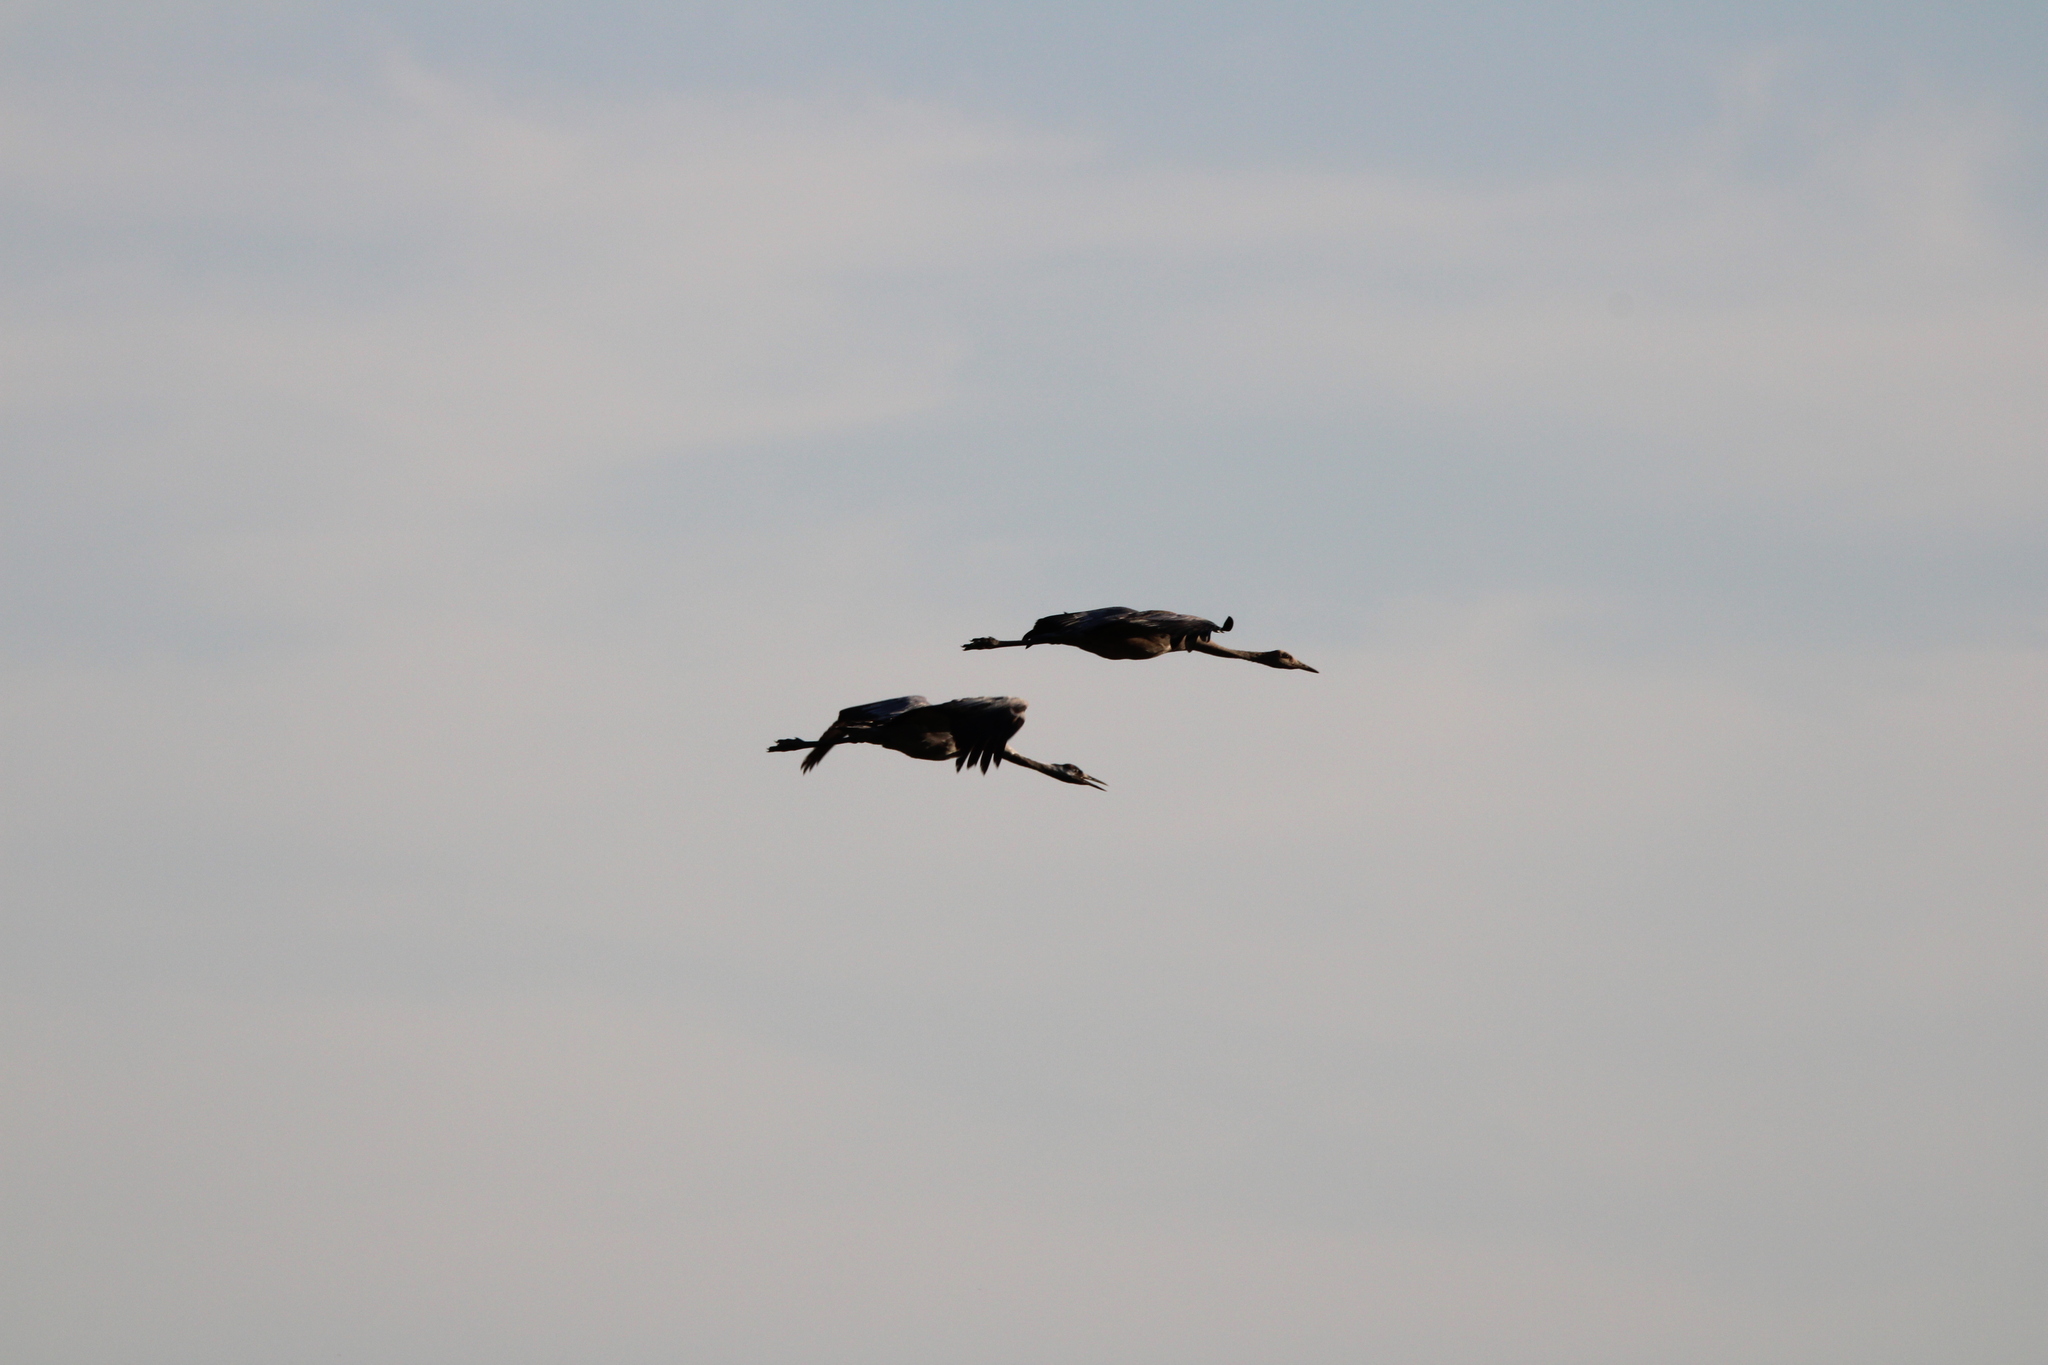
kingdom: Animalia
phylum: Chordata
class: Aves
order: Gruiformes
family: Gruidae
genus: Grus
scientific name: Grus grus
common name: Common crane
